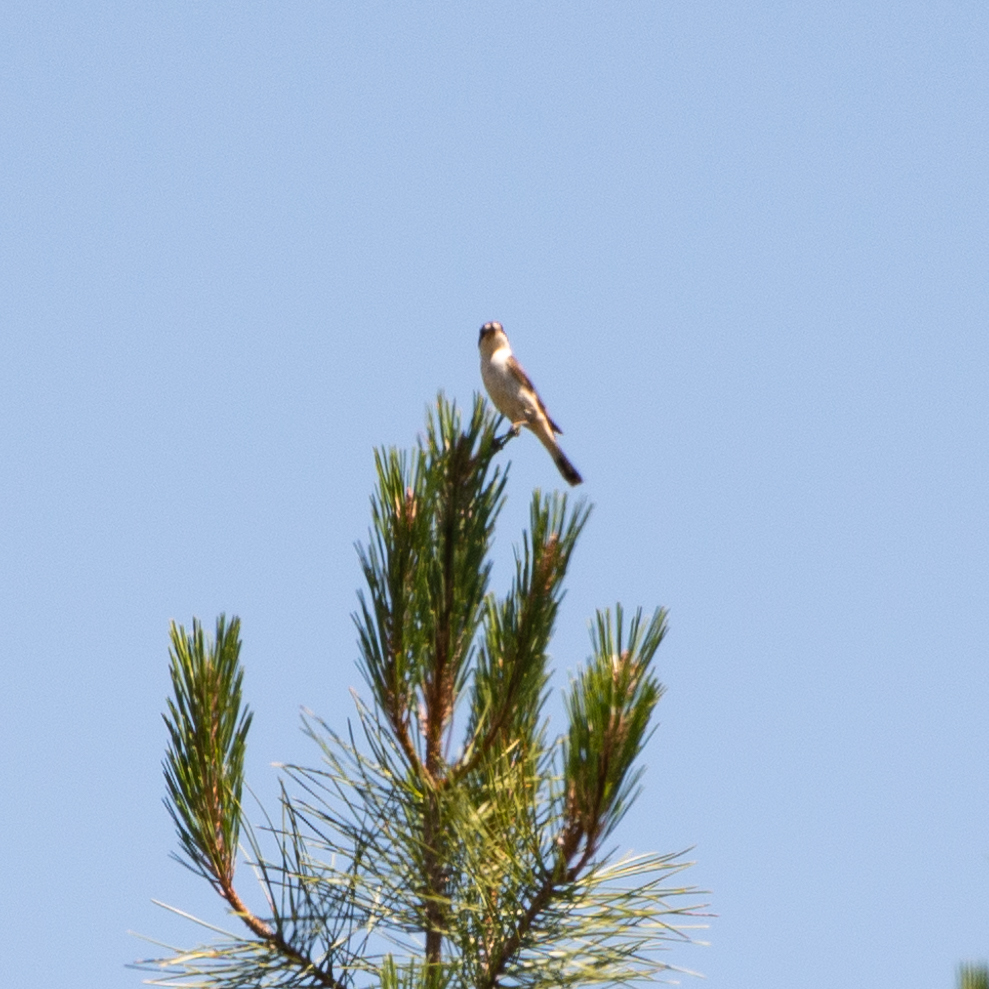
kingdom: Animalia
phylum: Chordata
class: Aves
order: Passeriformes
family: Laniidae
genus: Lanius
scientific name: Lanius senator
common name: Woodchat shrike
